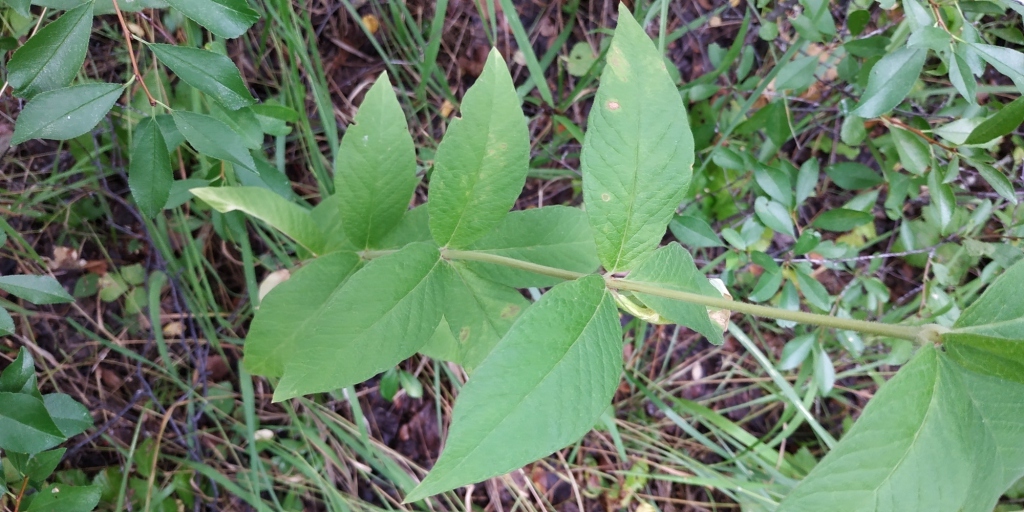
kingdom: Plantae
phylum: Tracheophyta
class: Magnoliopsida
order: Ericales
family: Primulaceae
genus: Lysimachia
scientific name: Lysimachia vulgaris
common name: Yellow loosestrife
